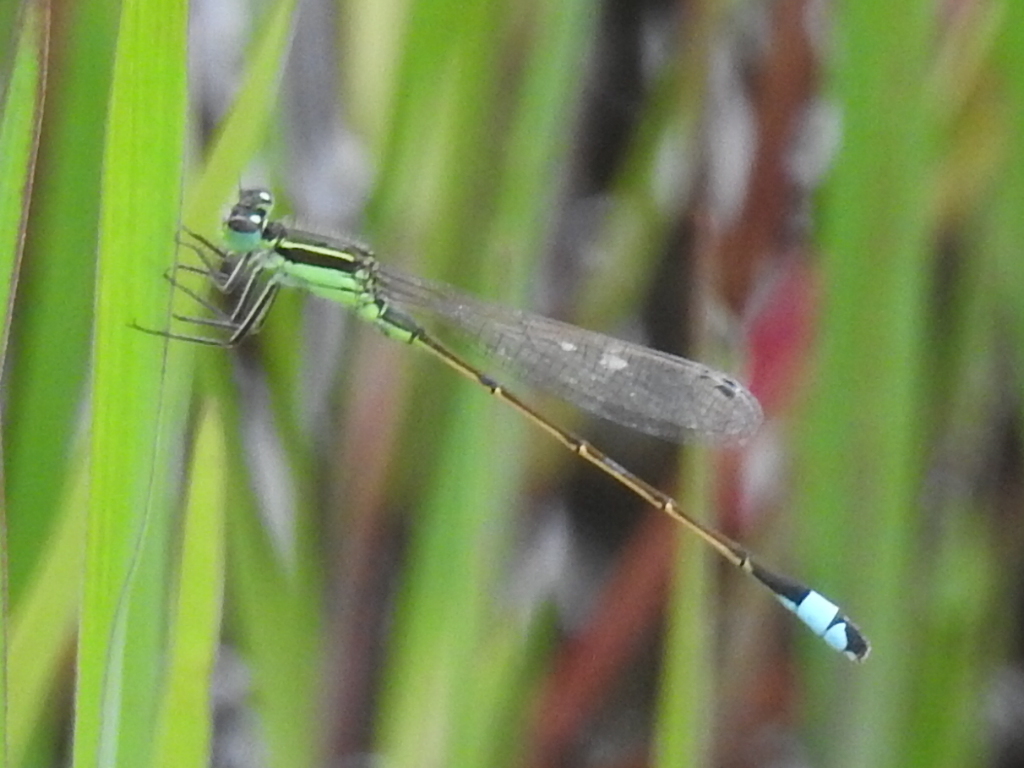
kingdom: Animalia
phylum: Arthropoda
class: Insecta
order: Odonata
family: Coenagrionidae
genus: Ischnura
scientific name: Ischnura ramburii
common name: Rambur's forktail
